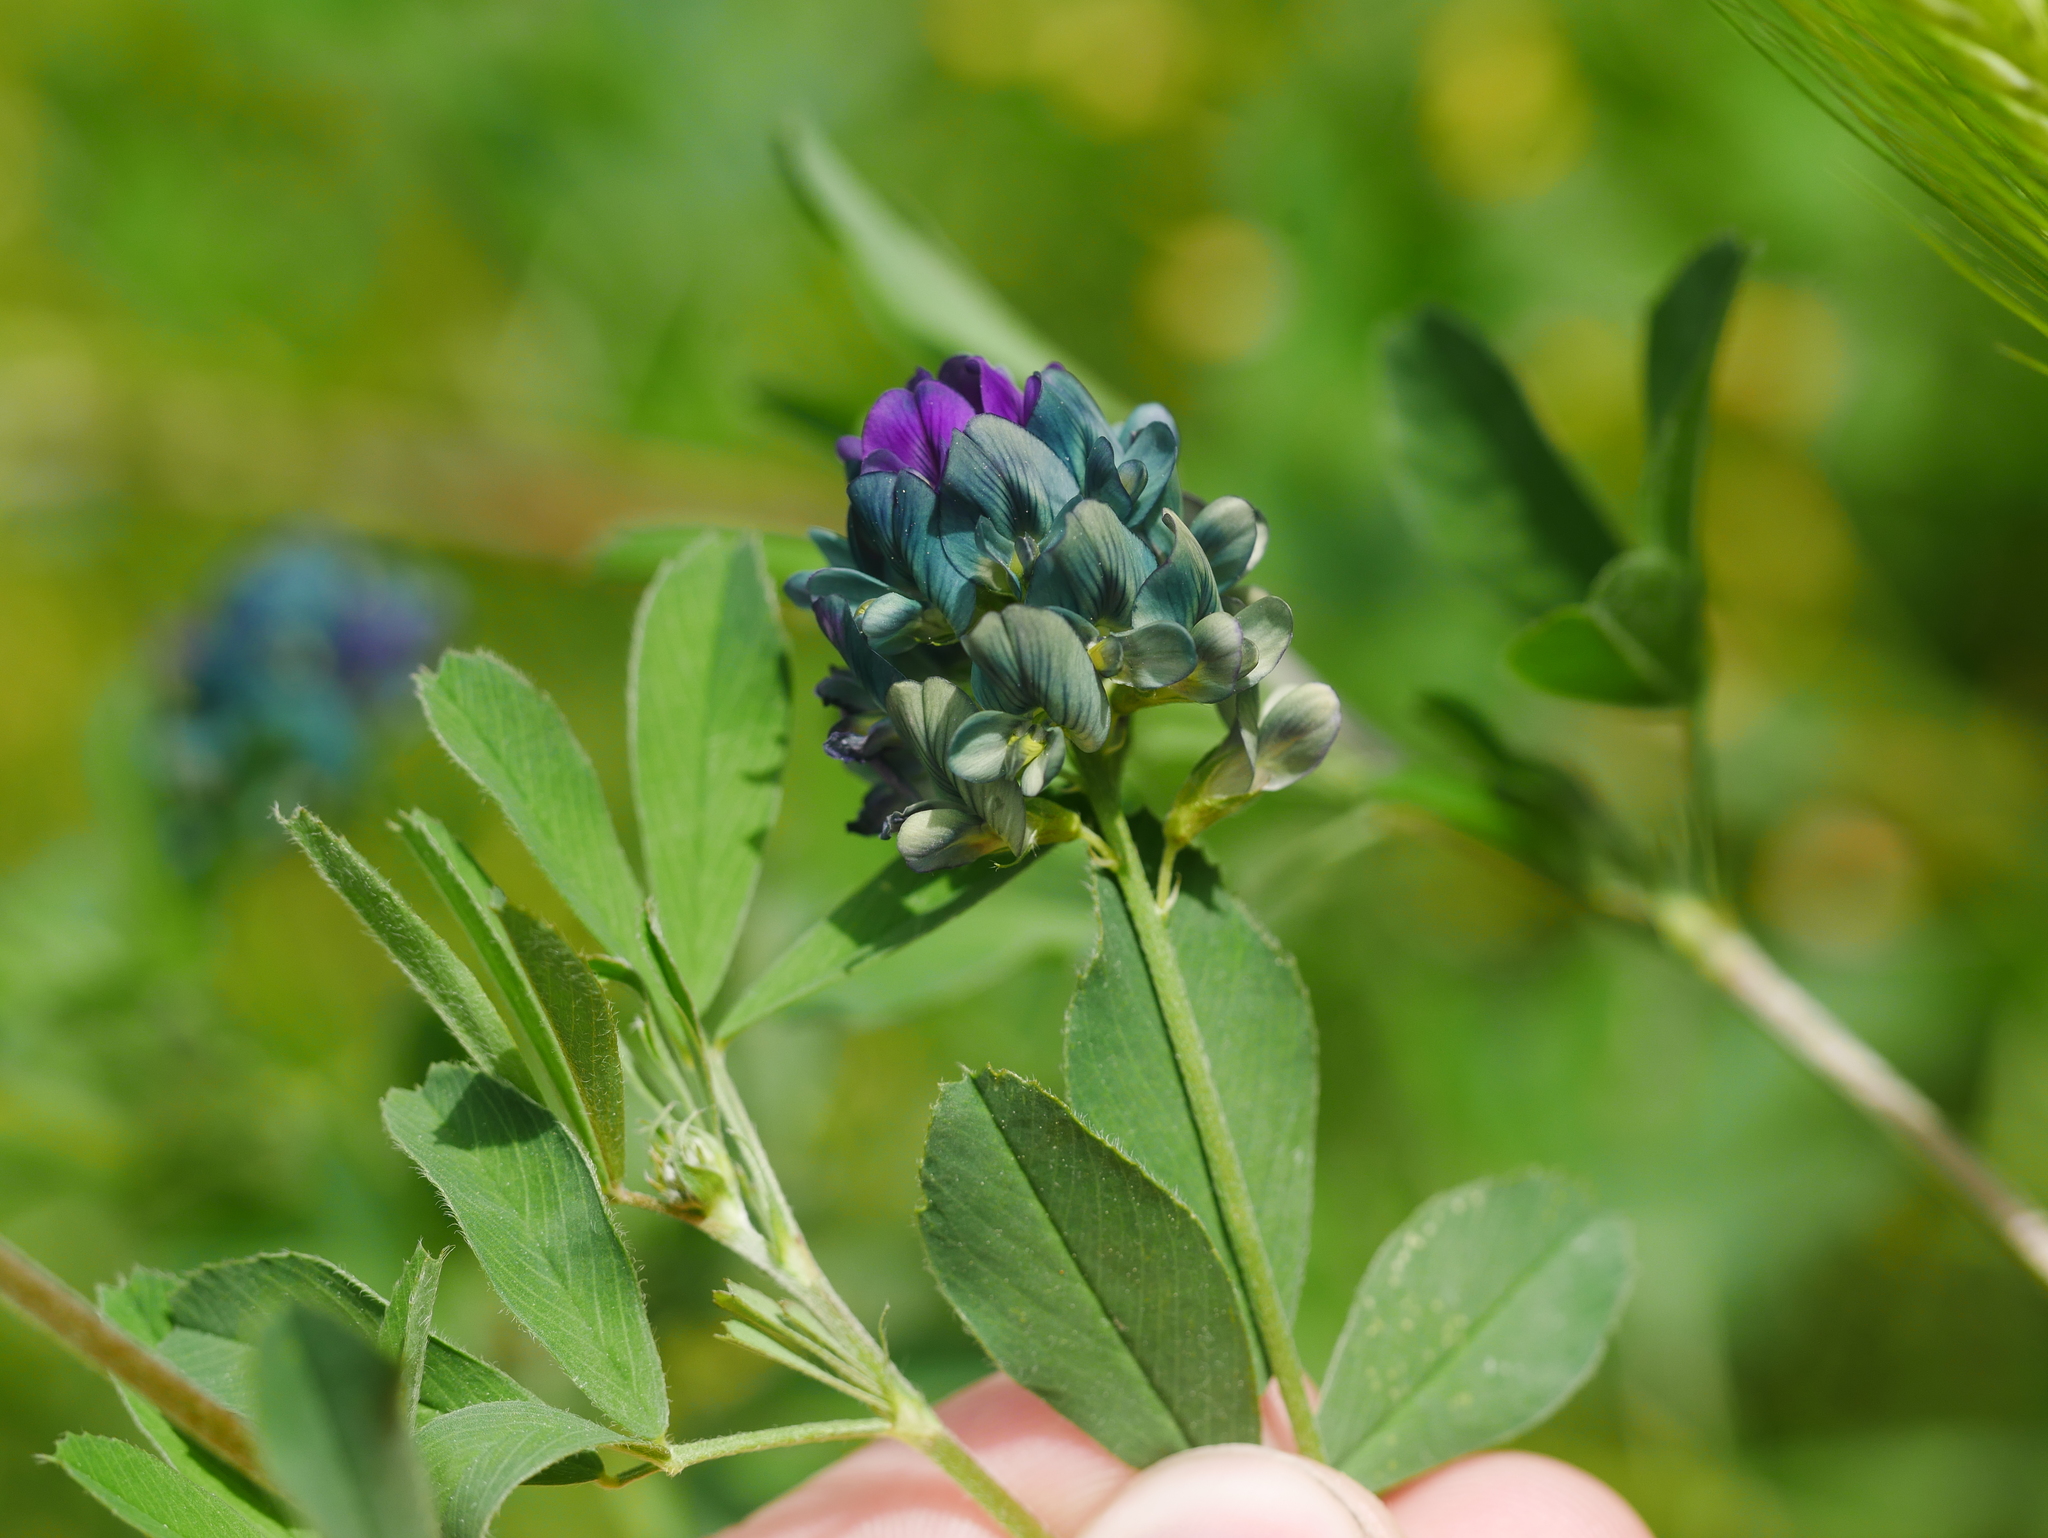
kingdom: Plantae
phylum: Tracheophyta
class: Magnoliopsida
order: Fabales
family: Fabaceae
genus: Medicago
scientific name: Medicago varia
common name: Sand lucerne
